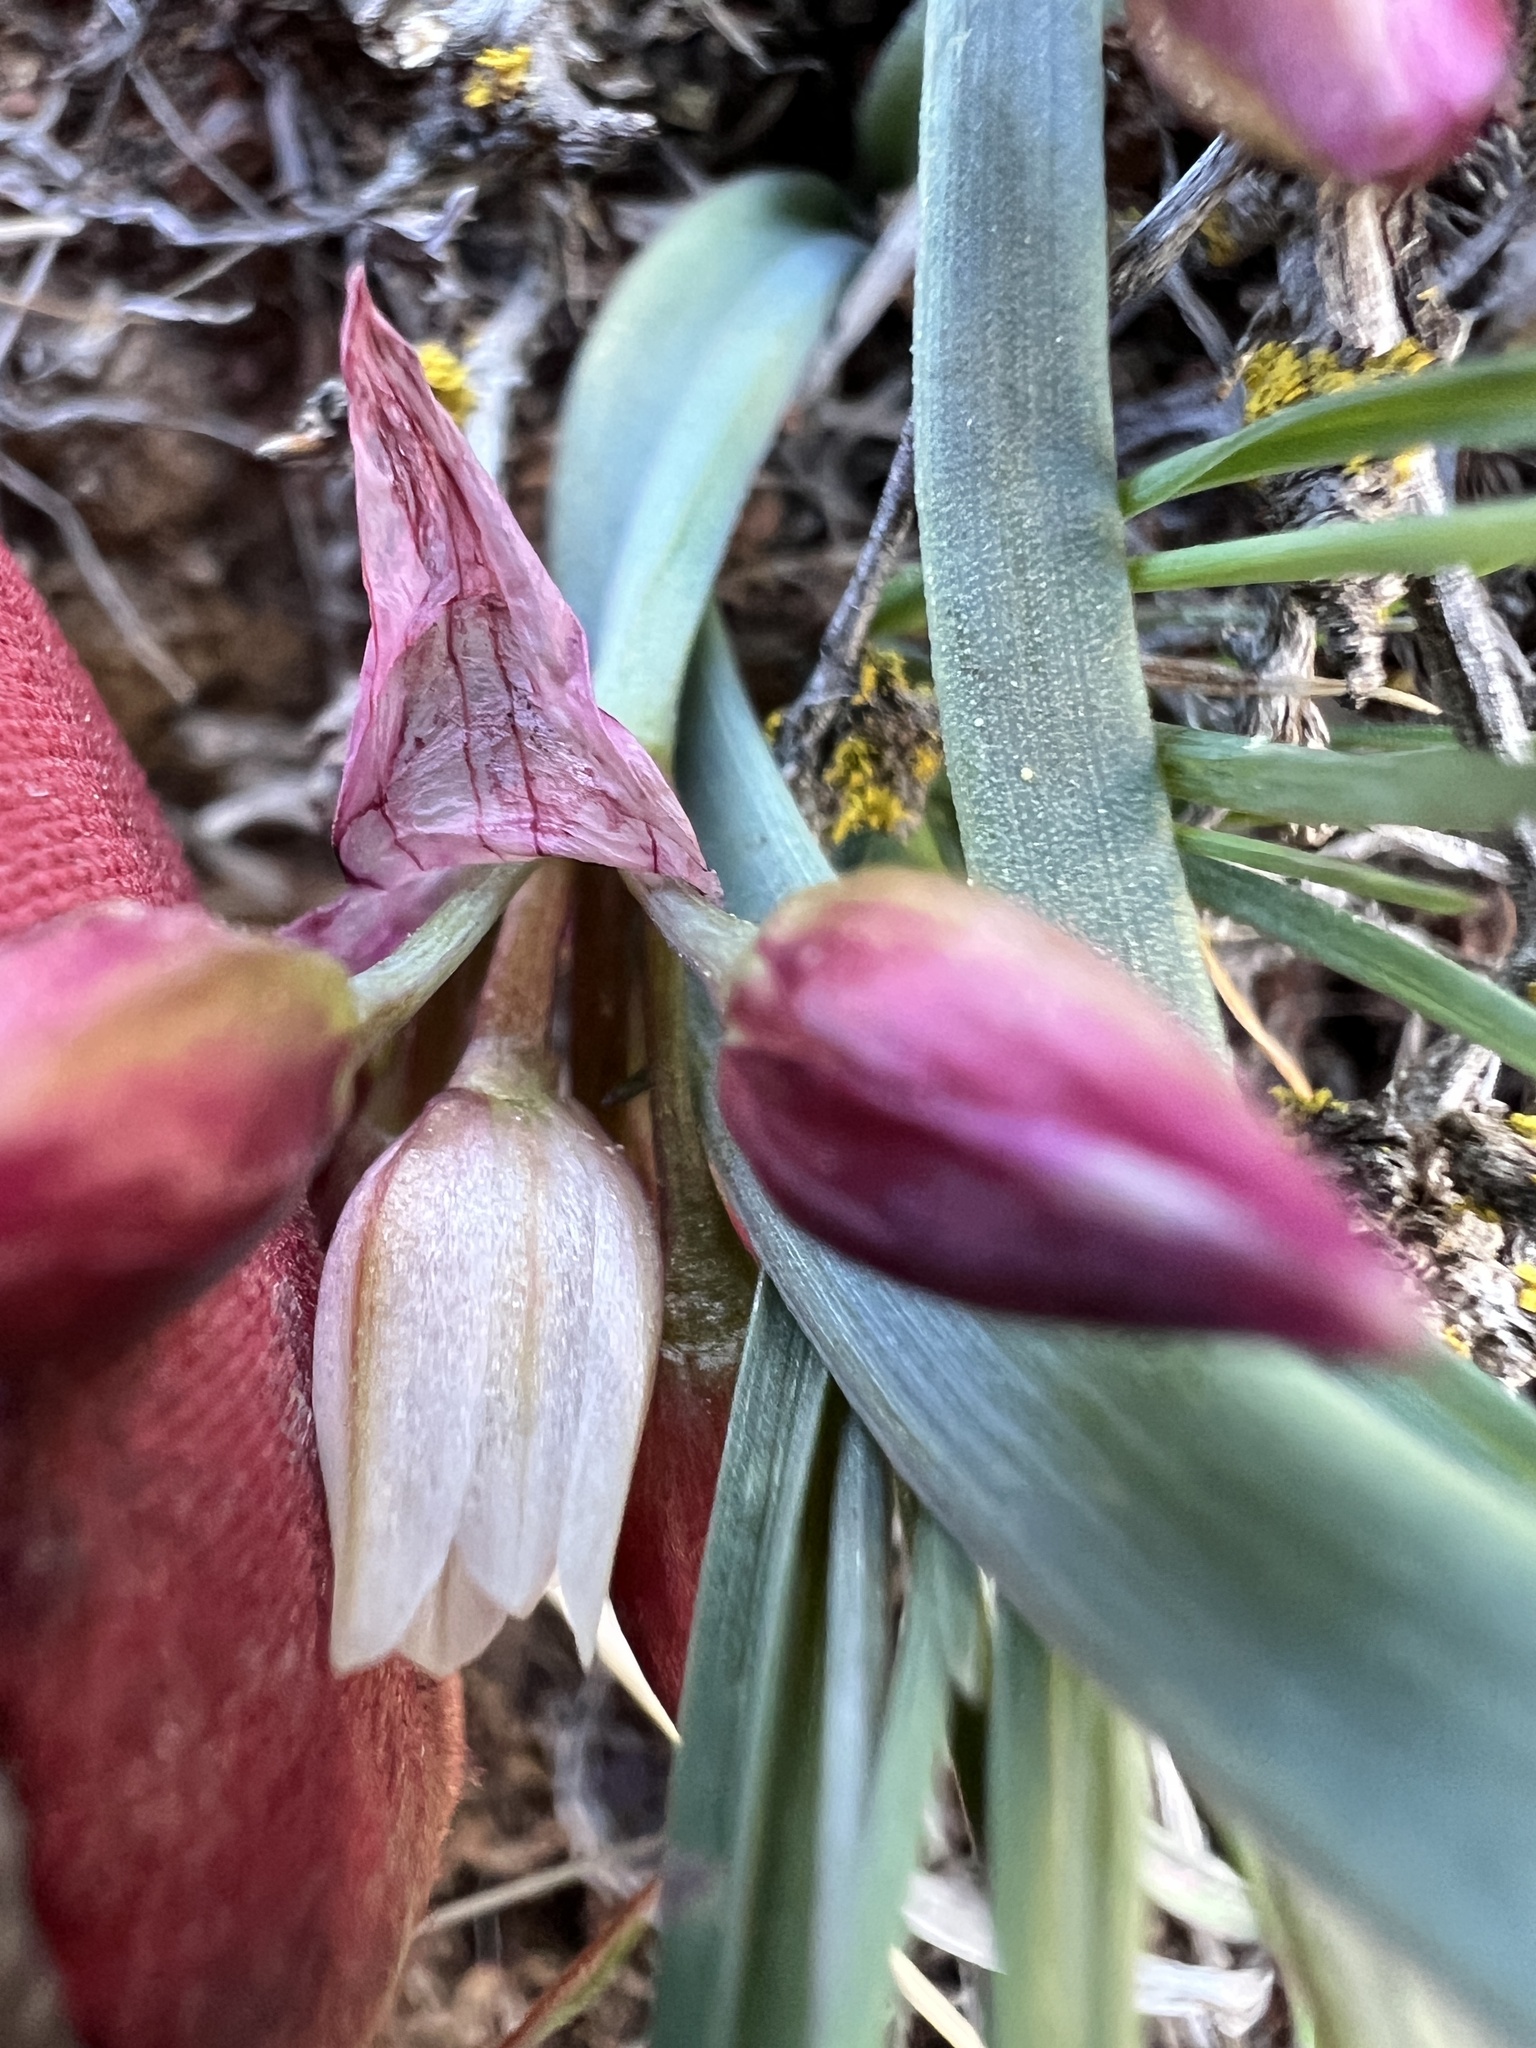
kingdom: Plantae
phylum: Tracheophyta
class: Liliopsida
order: Asparagales
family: Amaryllidaceae
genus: Allium
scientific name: Allium scilloides
